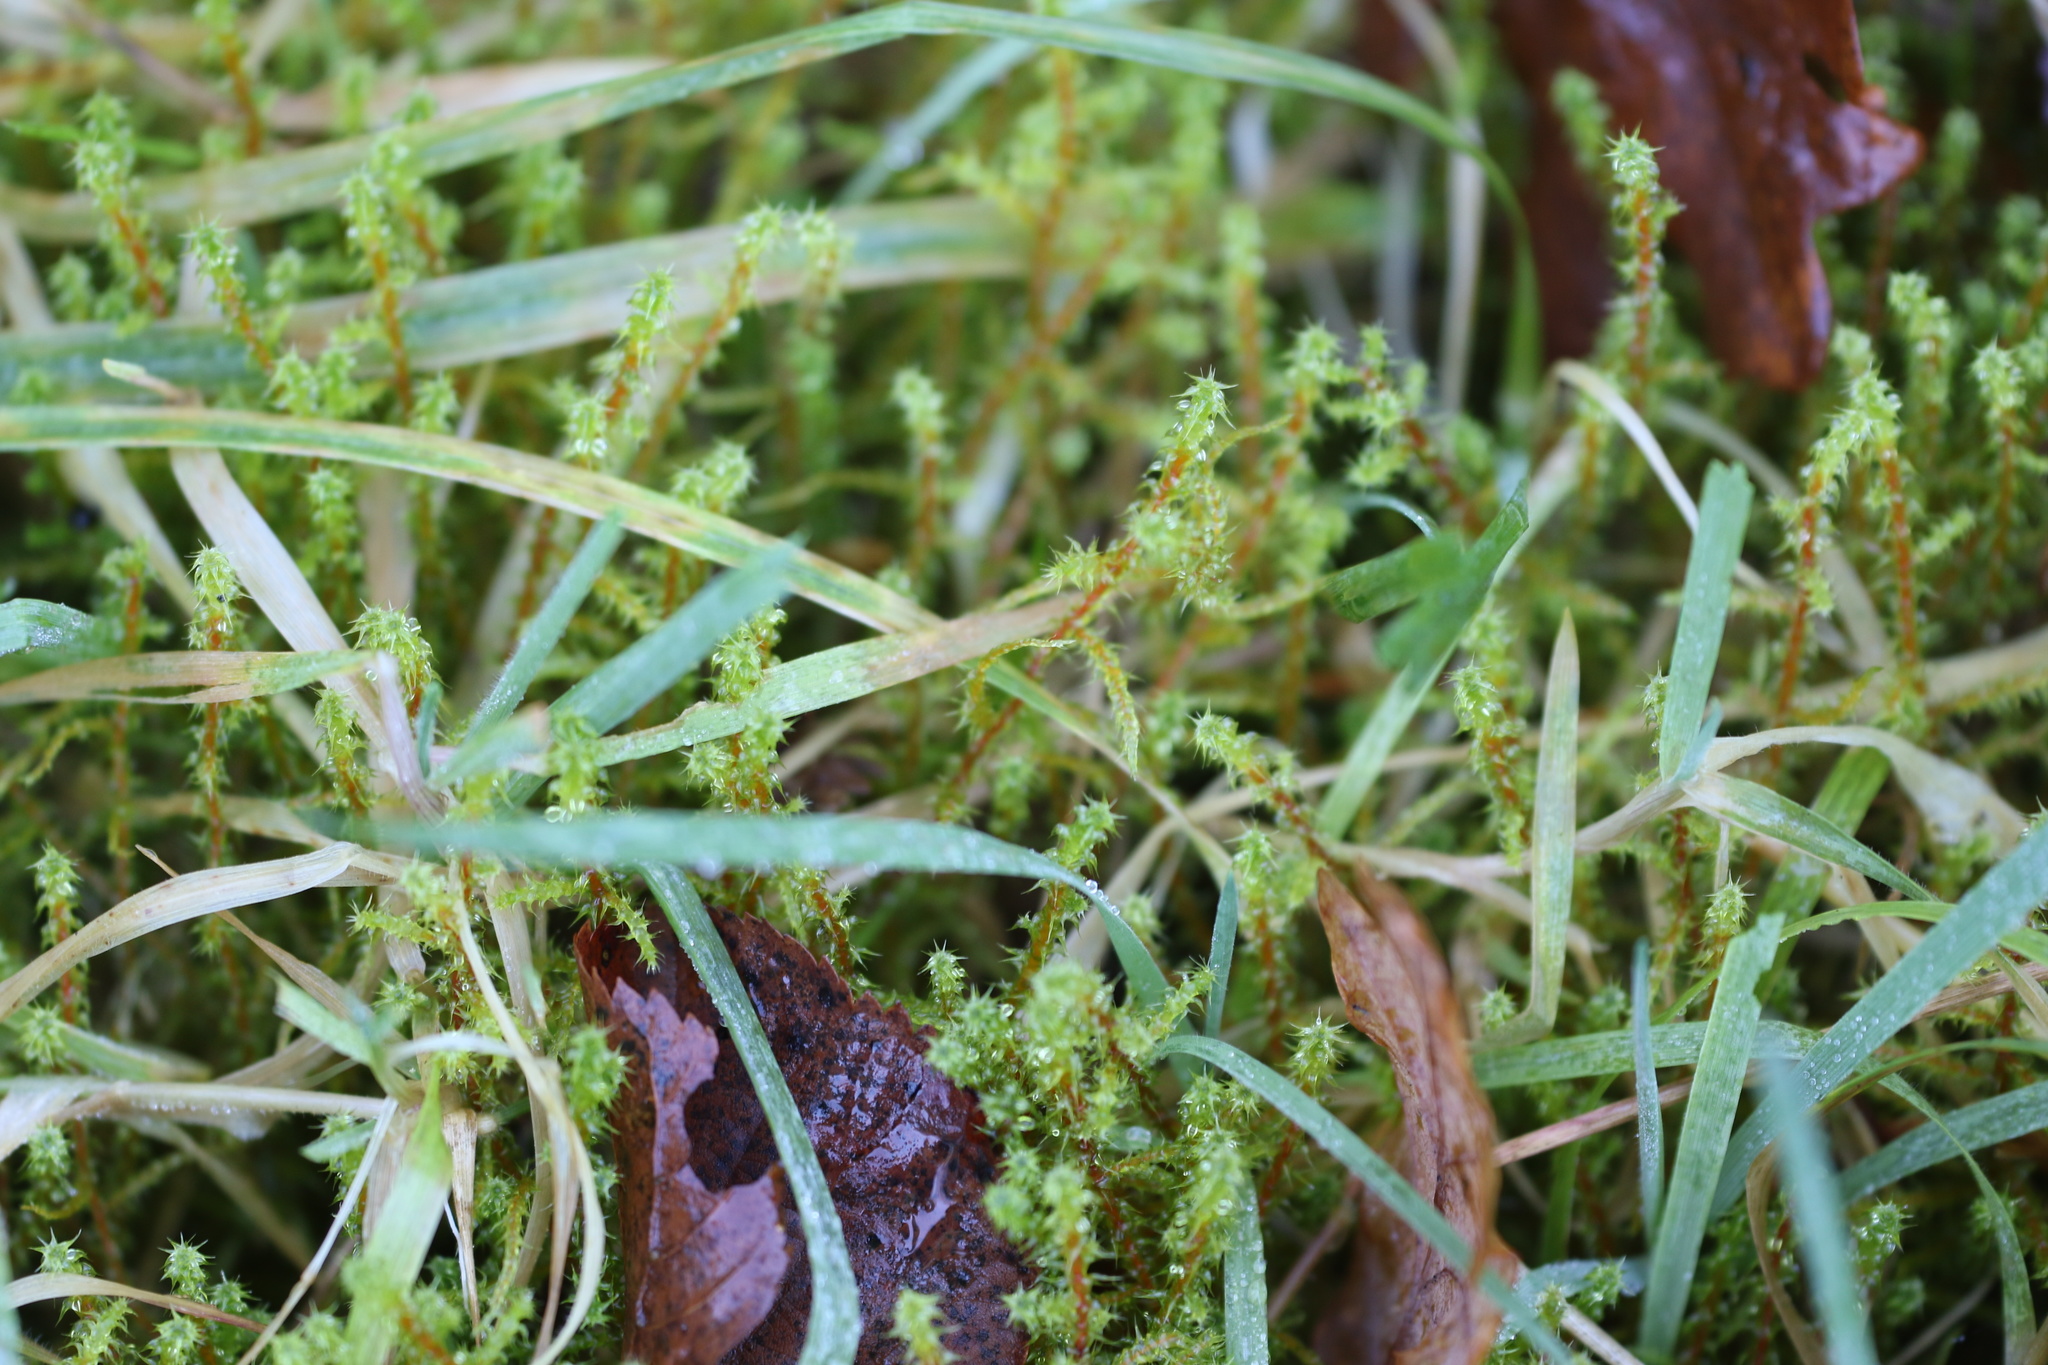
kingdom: Plantae
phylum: Bryophyta
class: Bryopsida
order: Hypnales
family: Hylocomiaceae
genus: Rhytidiadelphus
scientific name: Rhytidiadelphus squarrosus
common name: Springy turf-moss
